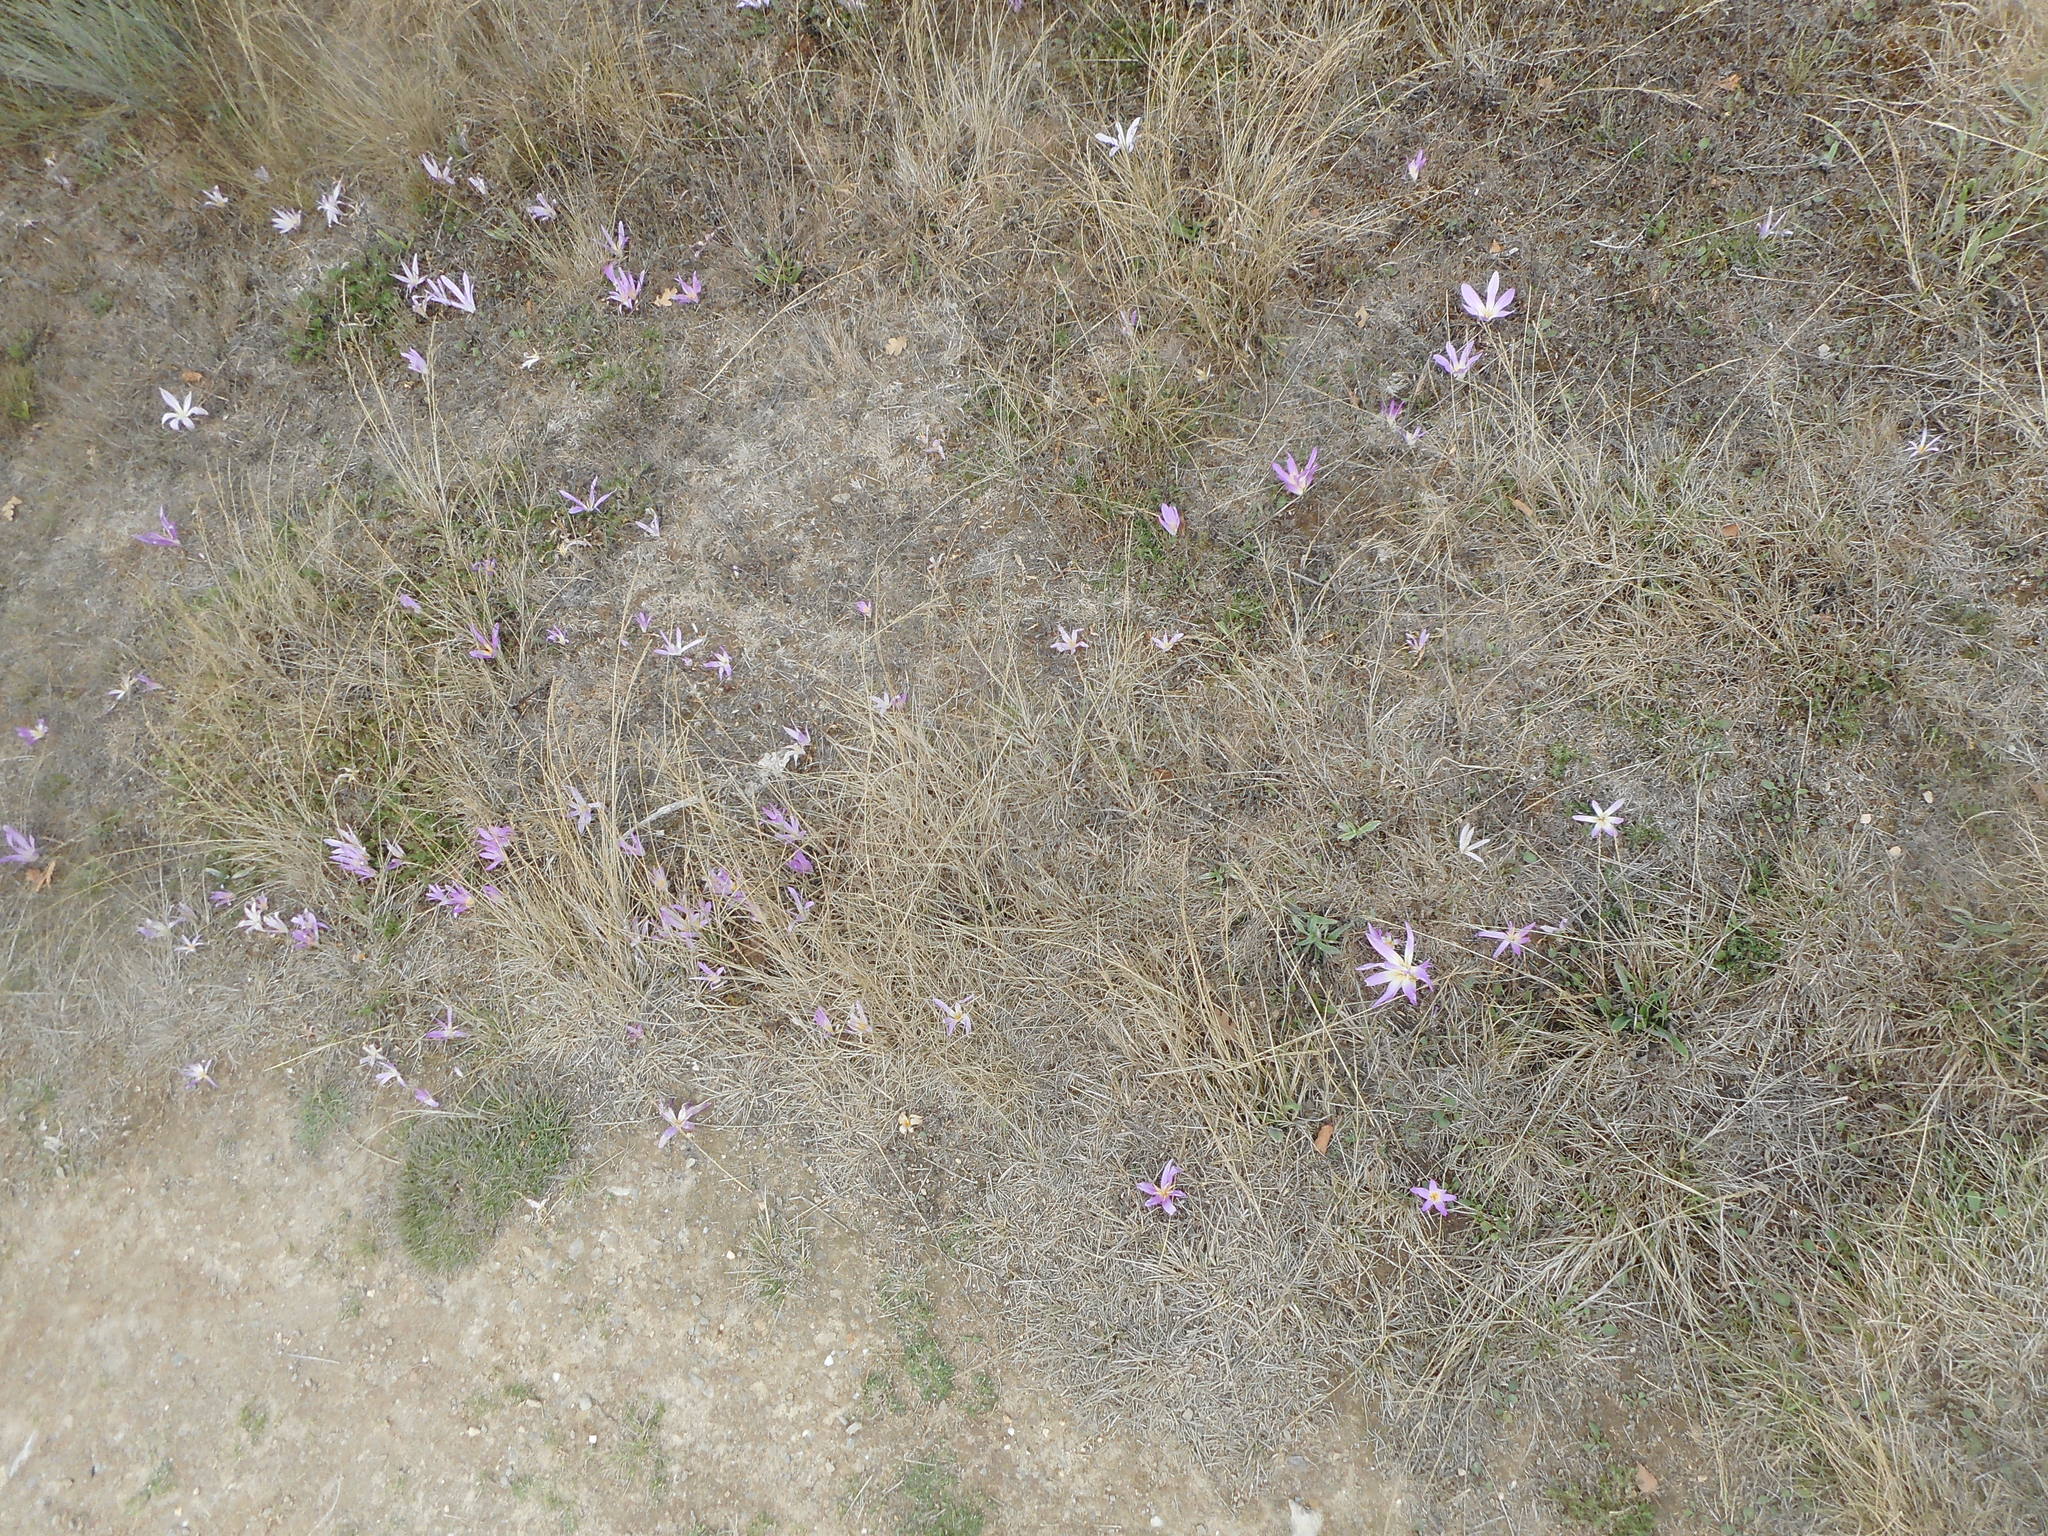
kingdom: Plantae
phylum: Tracheophyta
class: Liliopsida
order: Liliales
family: Colchicaceae
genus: Colchicum
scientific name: Colchicum montanum
